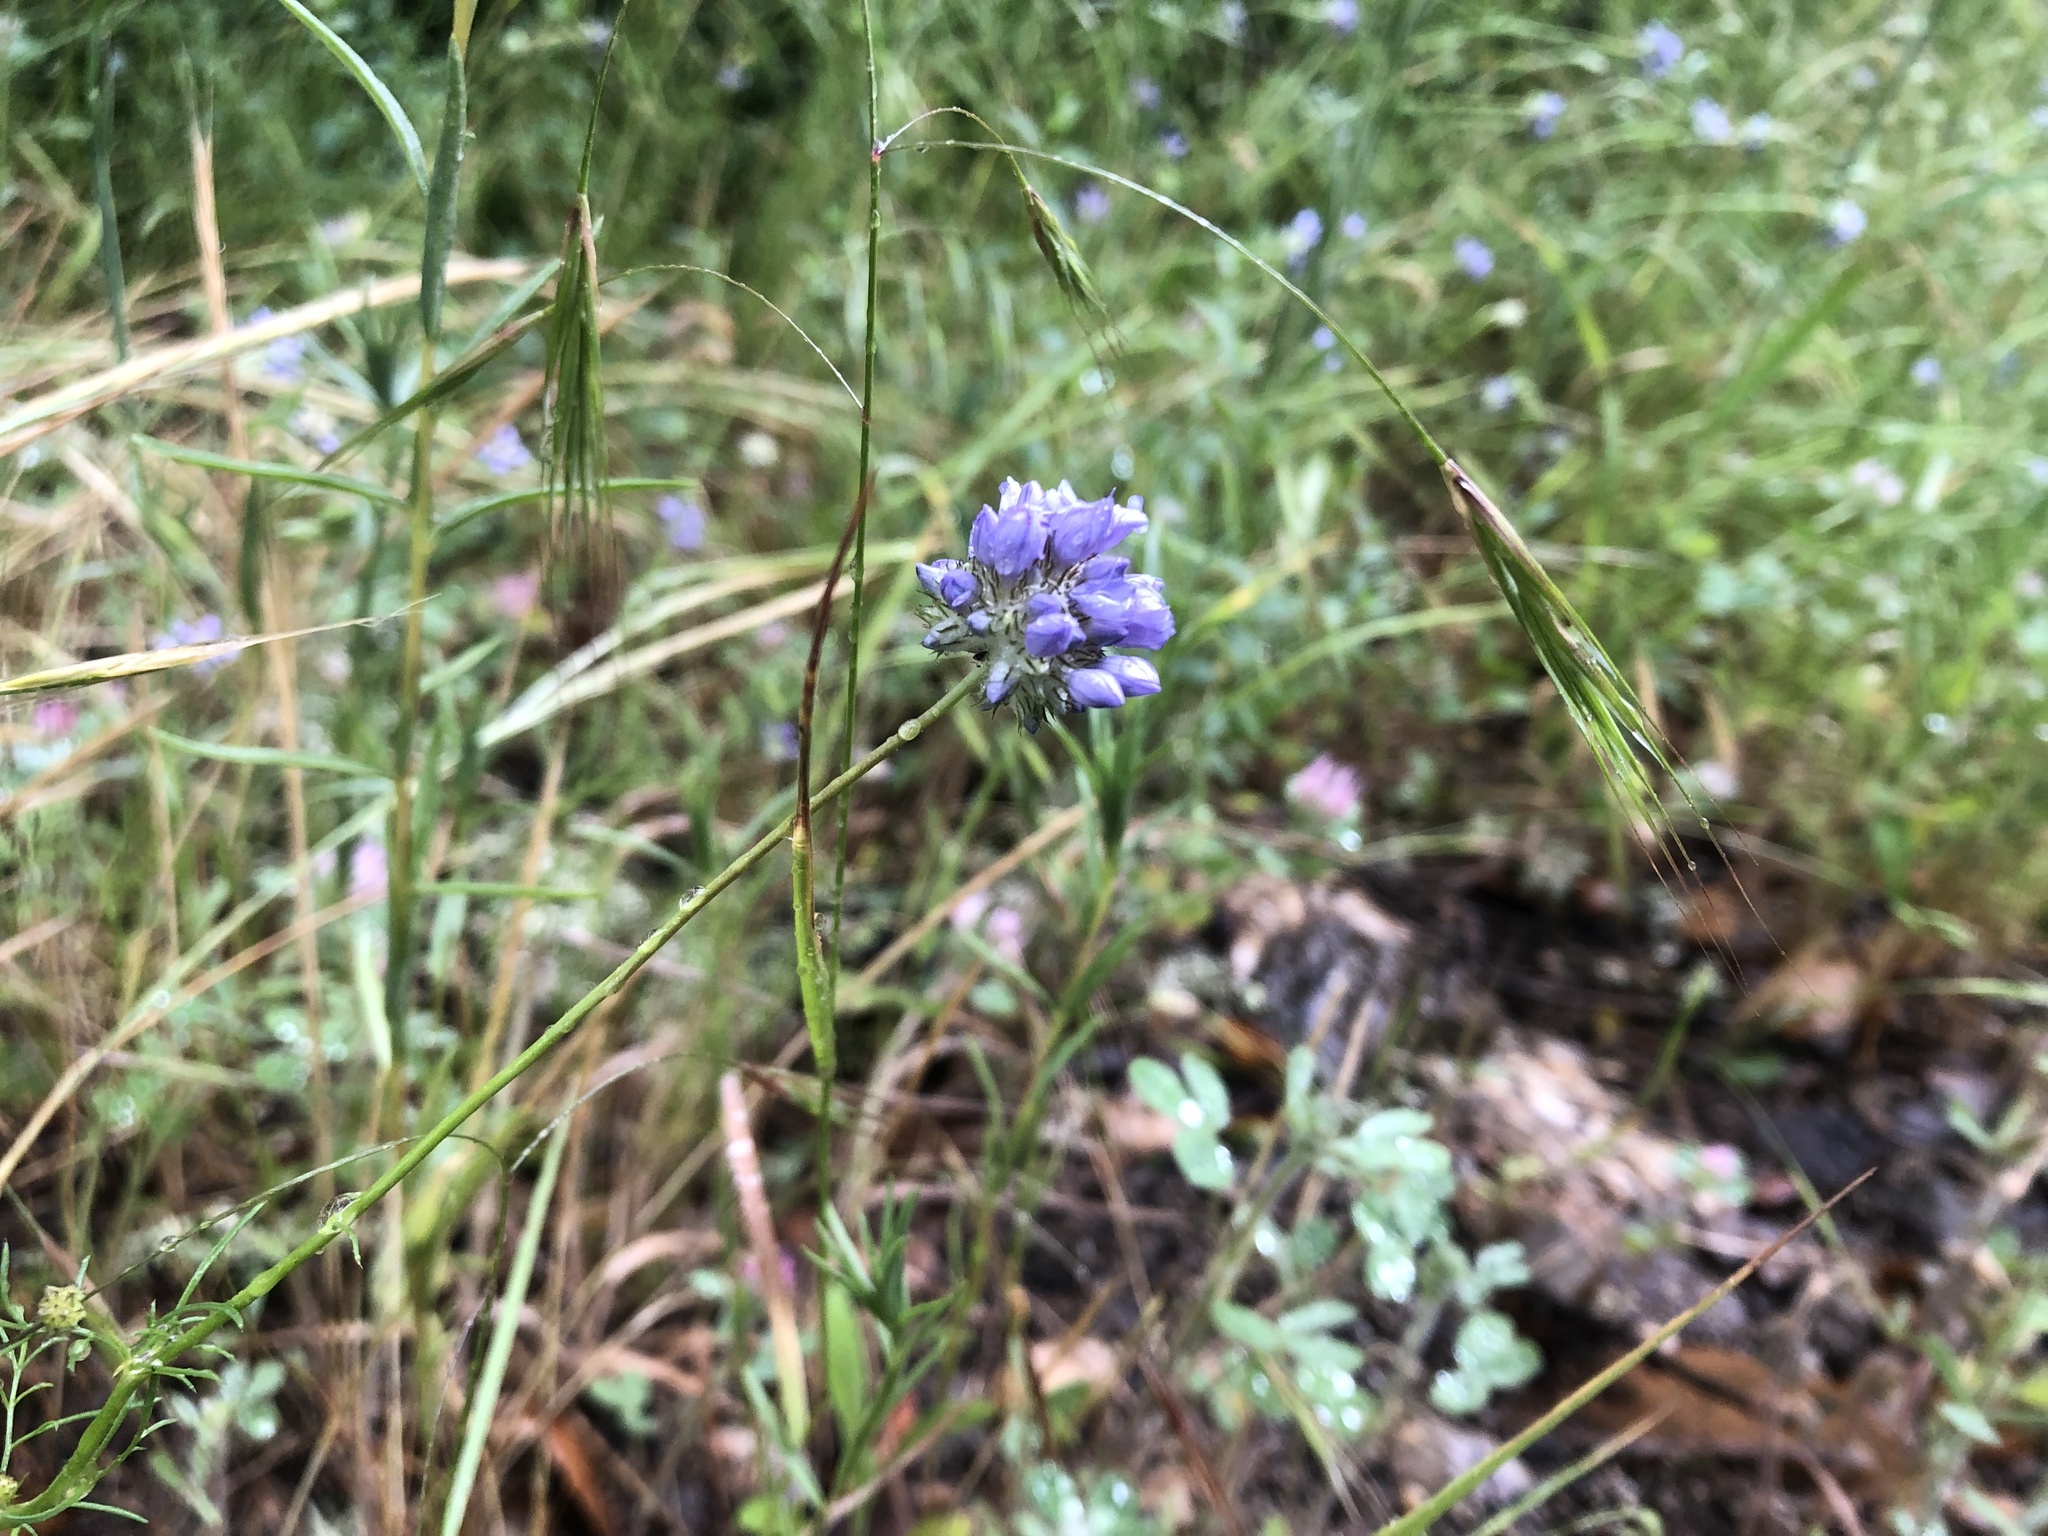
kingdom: Plantae
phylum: Tracheophyta
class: Magnoliopsida
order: Ericales
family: Polemoniaceae
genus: Gilia
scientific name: Gilia capitata
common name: Bluehead gilia
